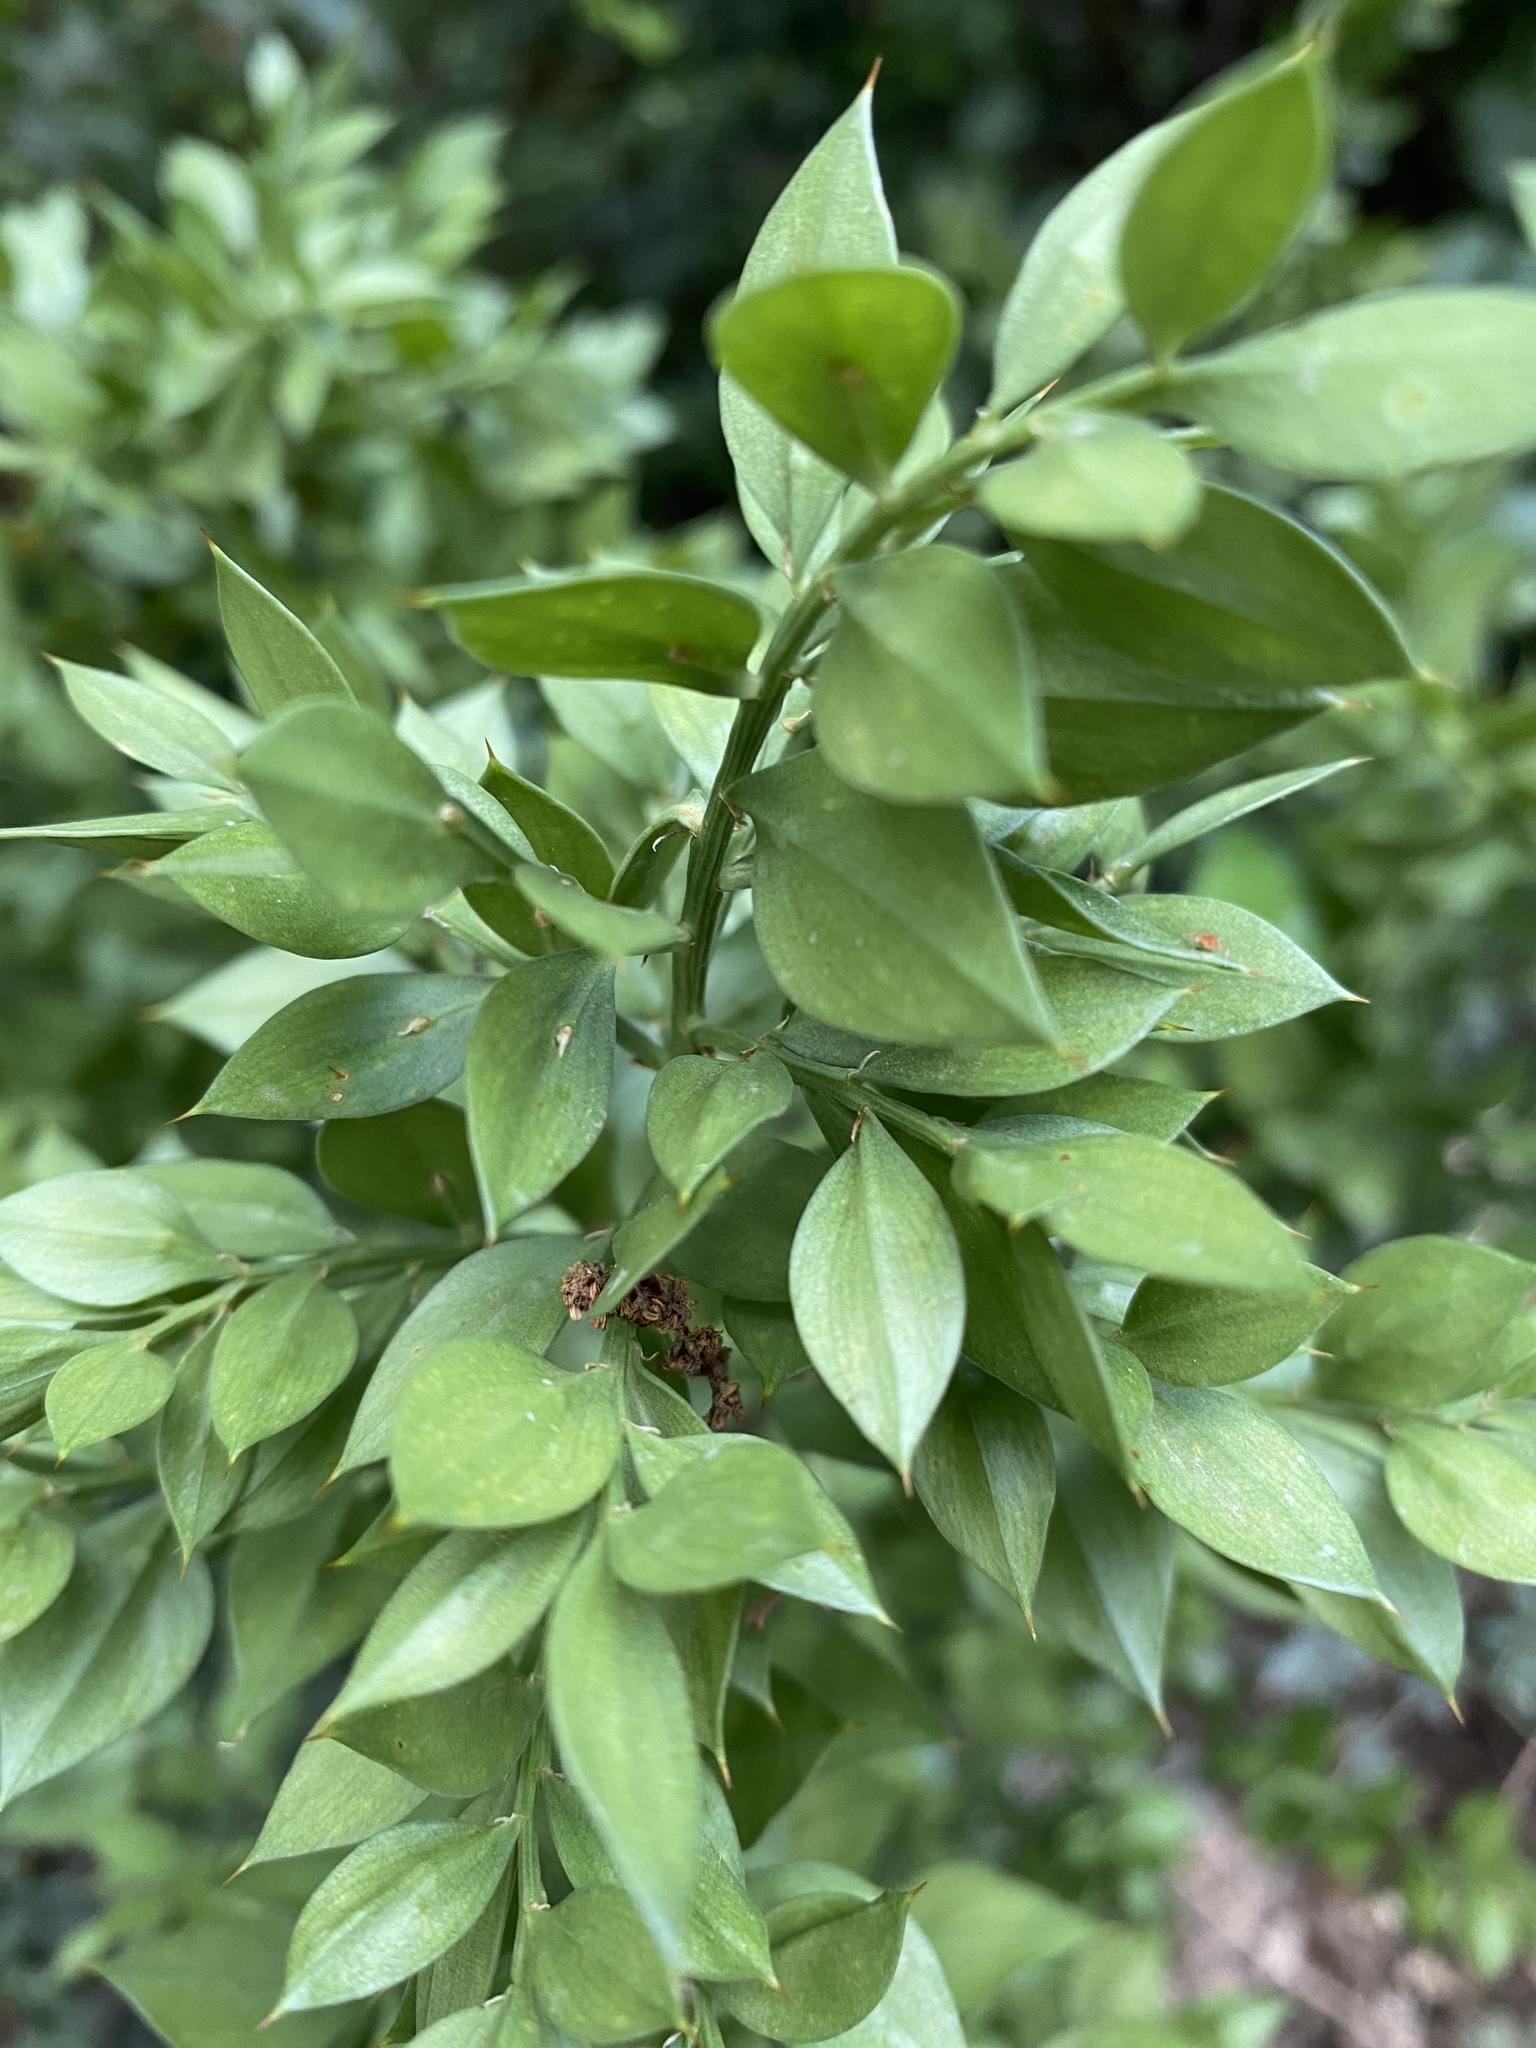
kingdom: Plantae
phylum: Tracheophyta
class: Liliopsida
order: Asparagales
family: Asparagaceae
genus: Ruscus
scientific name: Ruscus aculeatus
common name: Butcher's-broom
